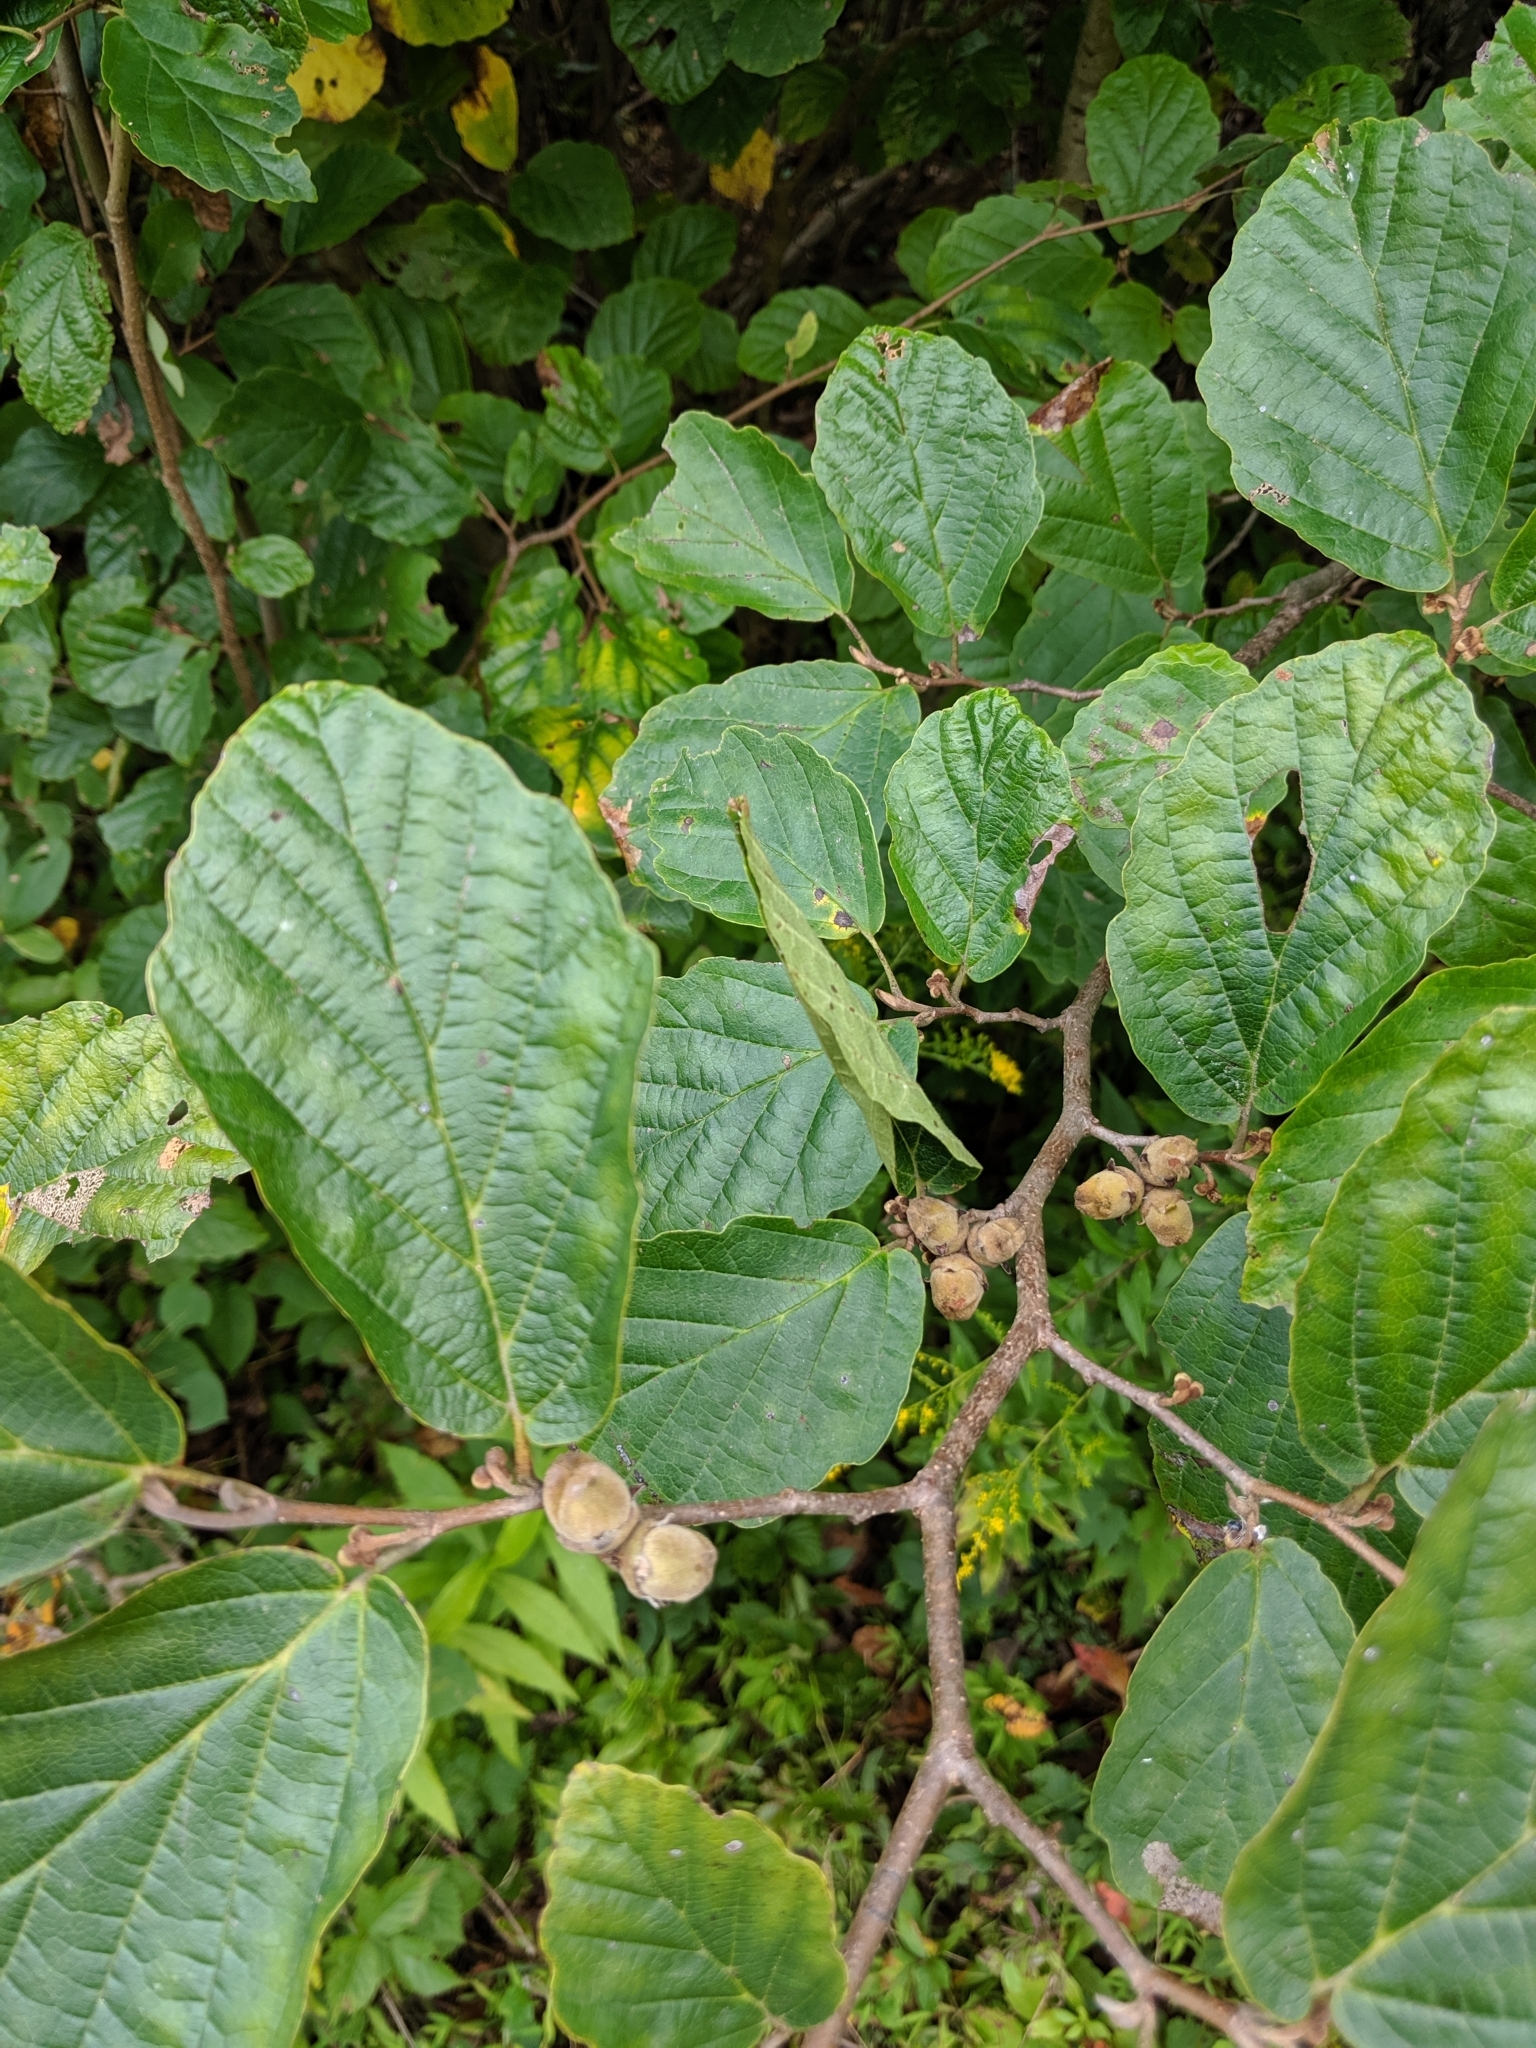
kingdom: Plantae
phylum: Tracheophyta
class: Magnoliopsida
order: Saxifragales
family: Hamamelidaceae
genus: Hamamelis
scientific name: Hamamelis virginiana
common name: Witch-hazel
